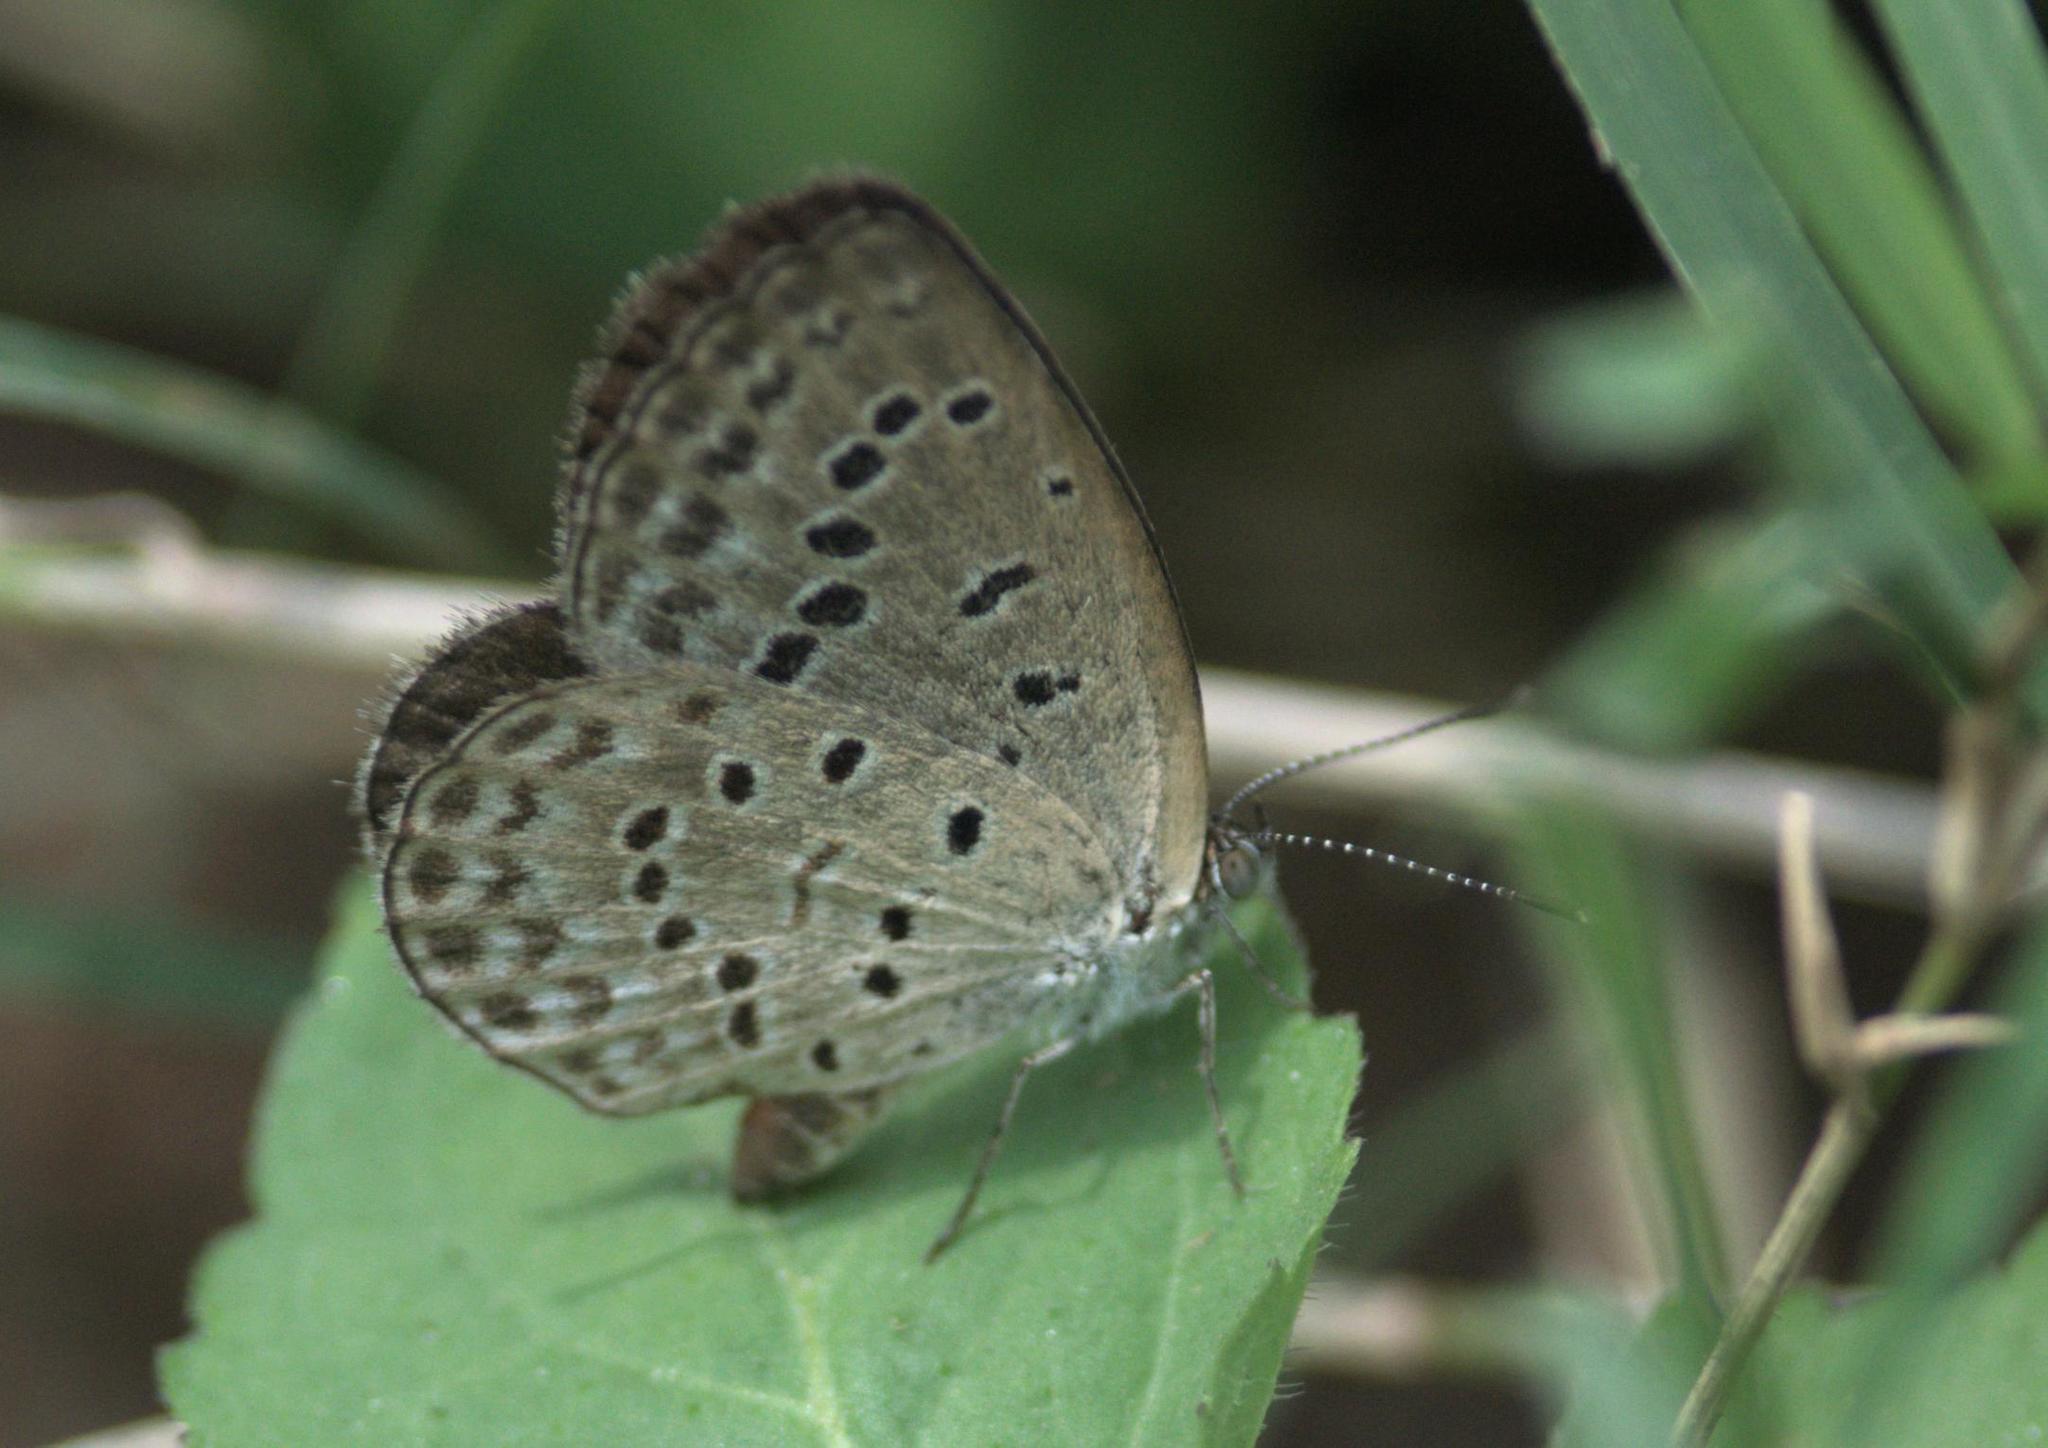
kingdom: Animalia
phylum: Arthropoda
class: Insecta
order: Lepidoptera
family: Lycaenidae
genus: Pseudozizeeria
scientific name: Pseudozizeeria maha
